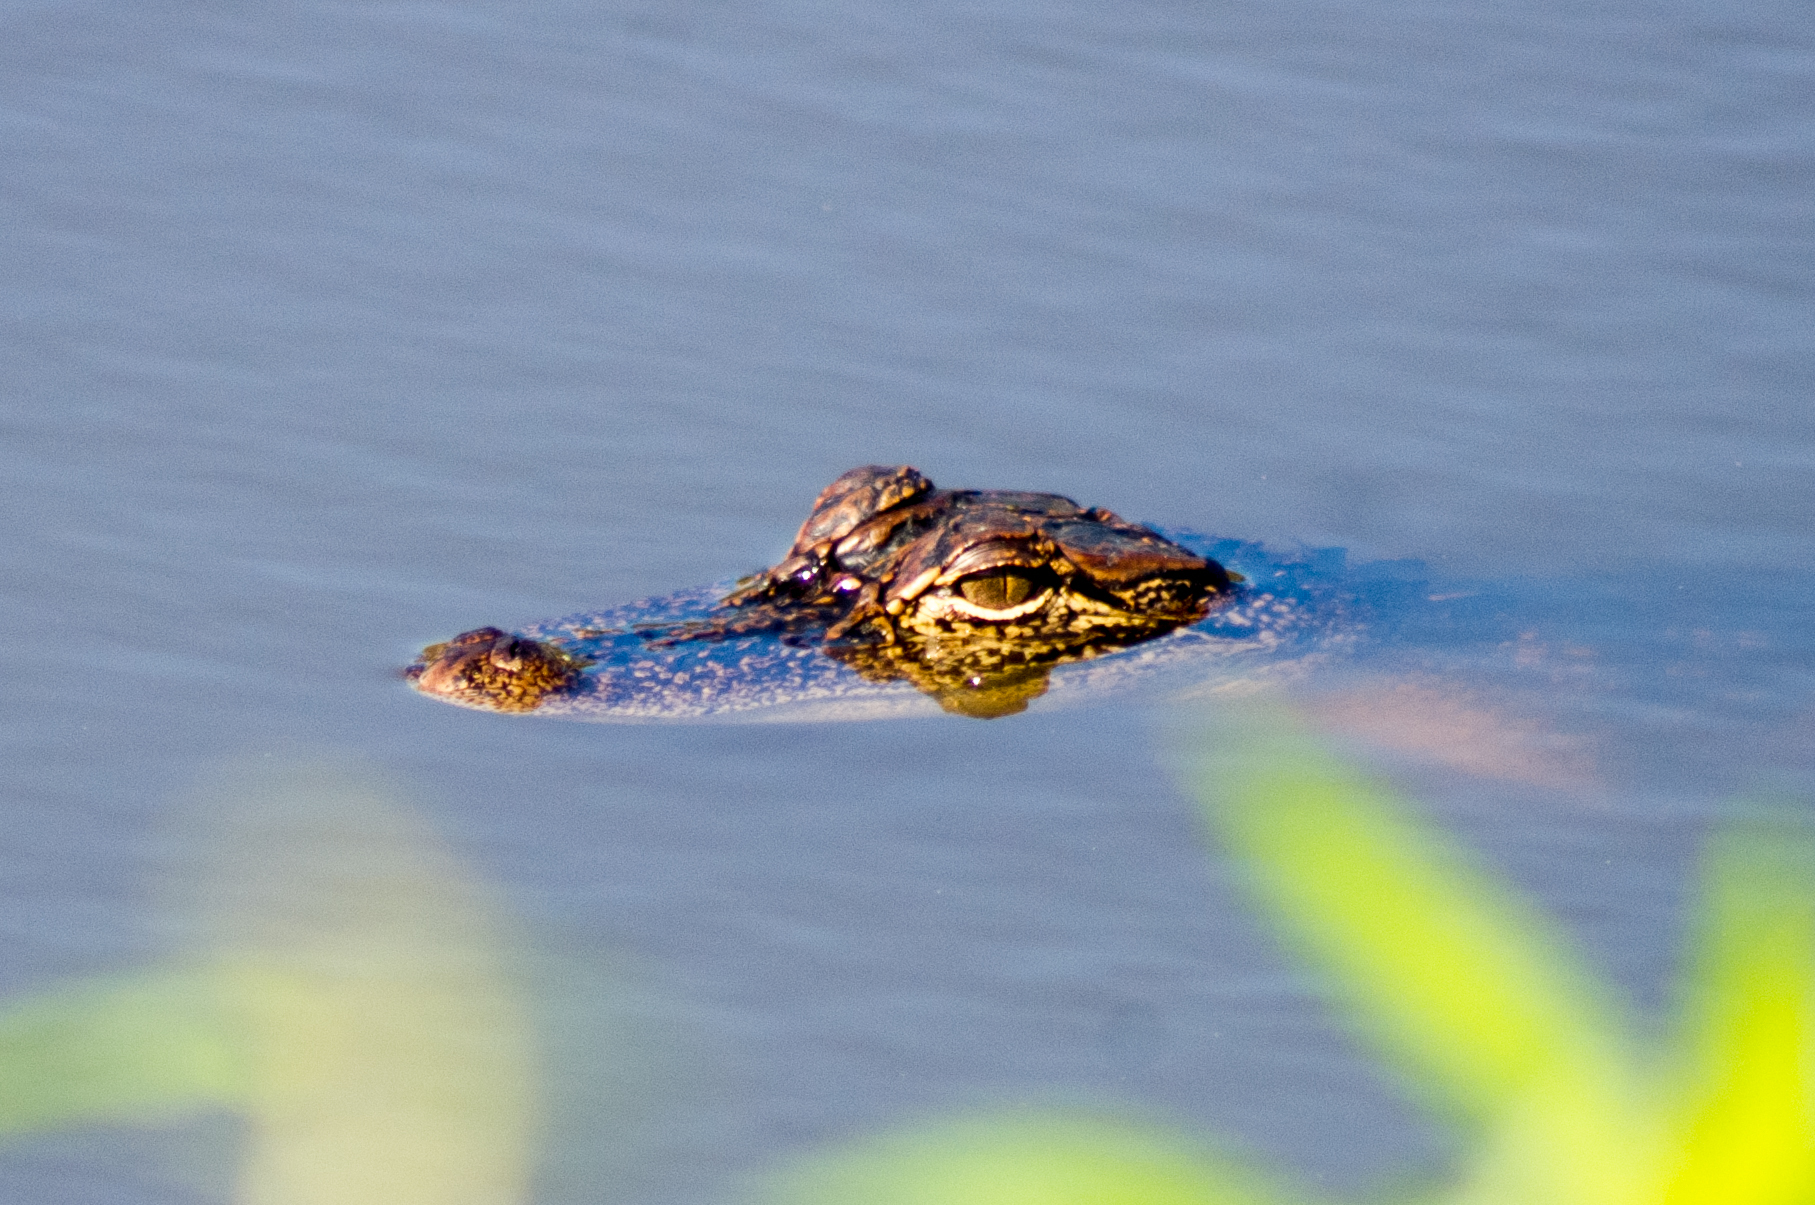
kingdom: Animalia
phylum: Chordata
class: Crocodylia
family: Alligatoridae
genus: Alligator
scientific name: Alligator mississippiensis
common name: American alligator
